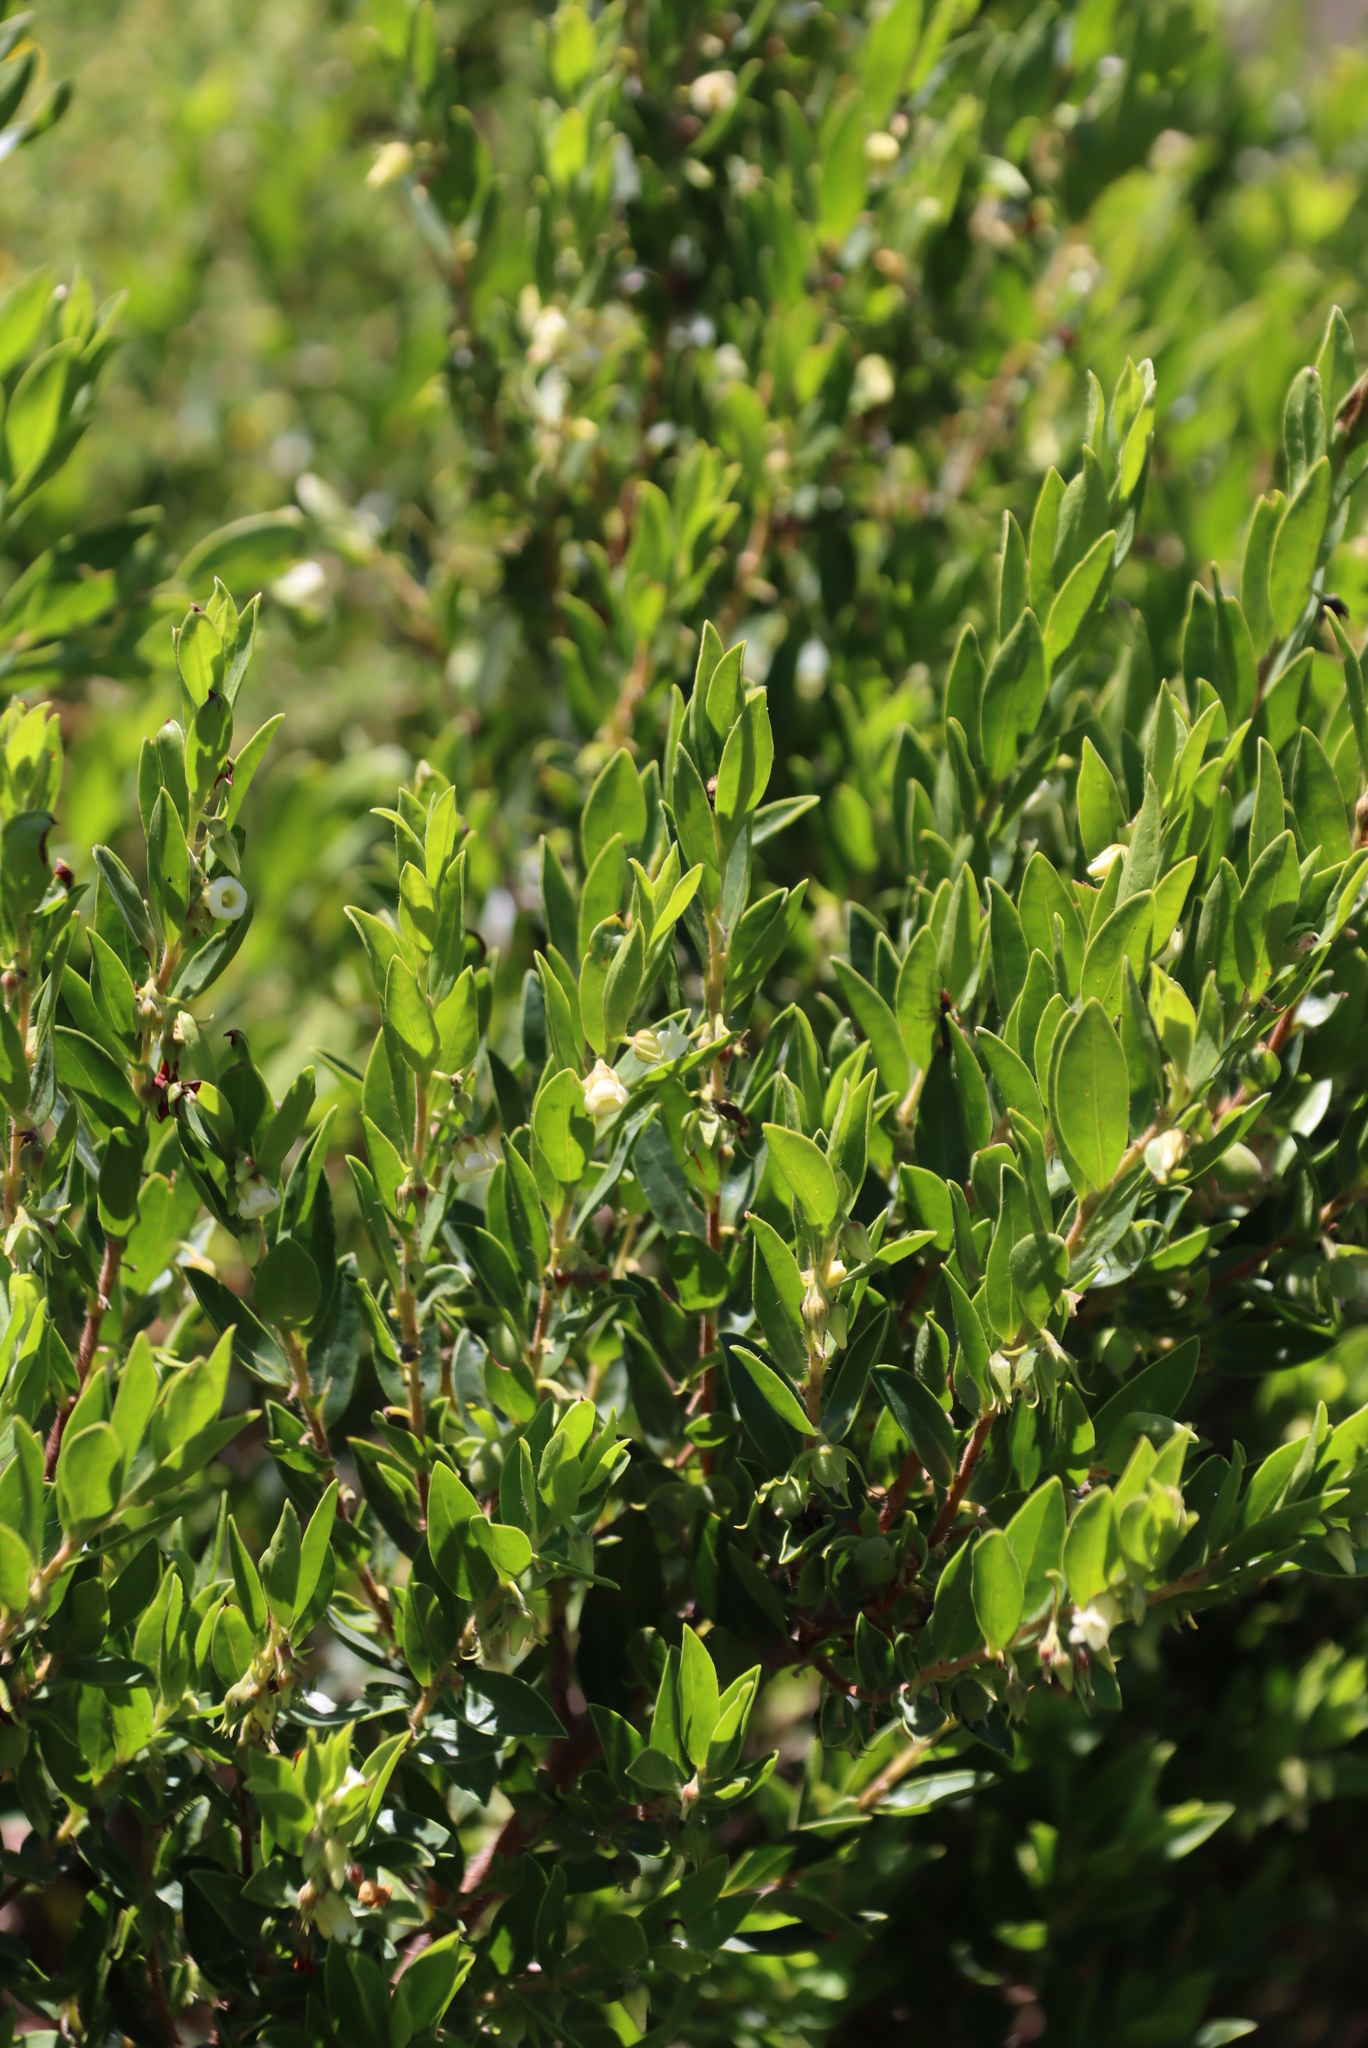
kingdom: Plantae
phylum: Tracheophyta
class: Magnoliopsida
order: Ericales
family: Ebenaceae
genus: Diospyros
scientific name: Diospyros glabra
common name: Fynbos star apple
